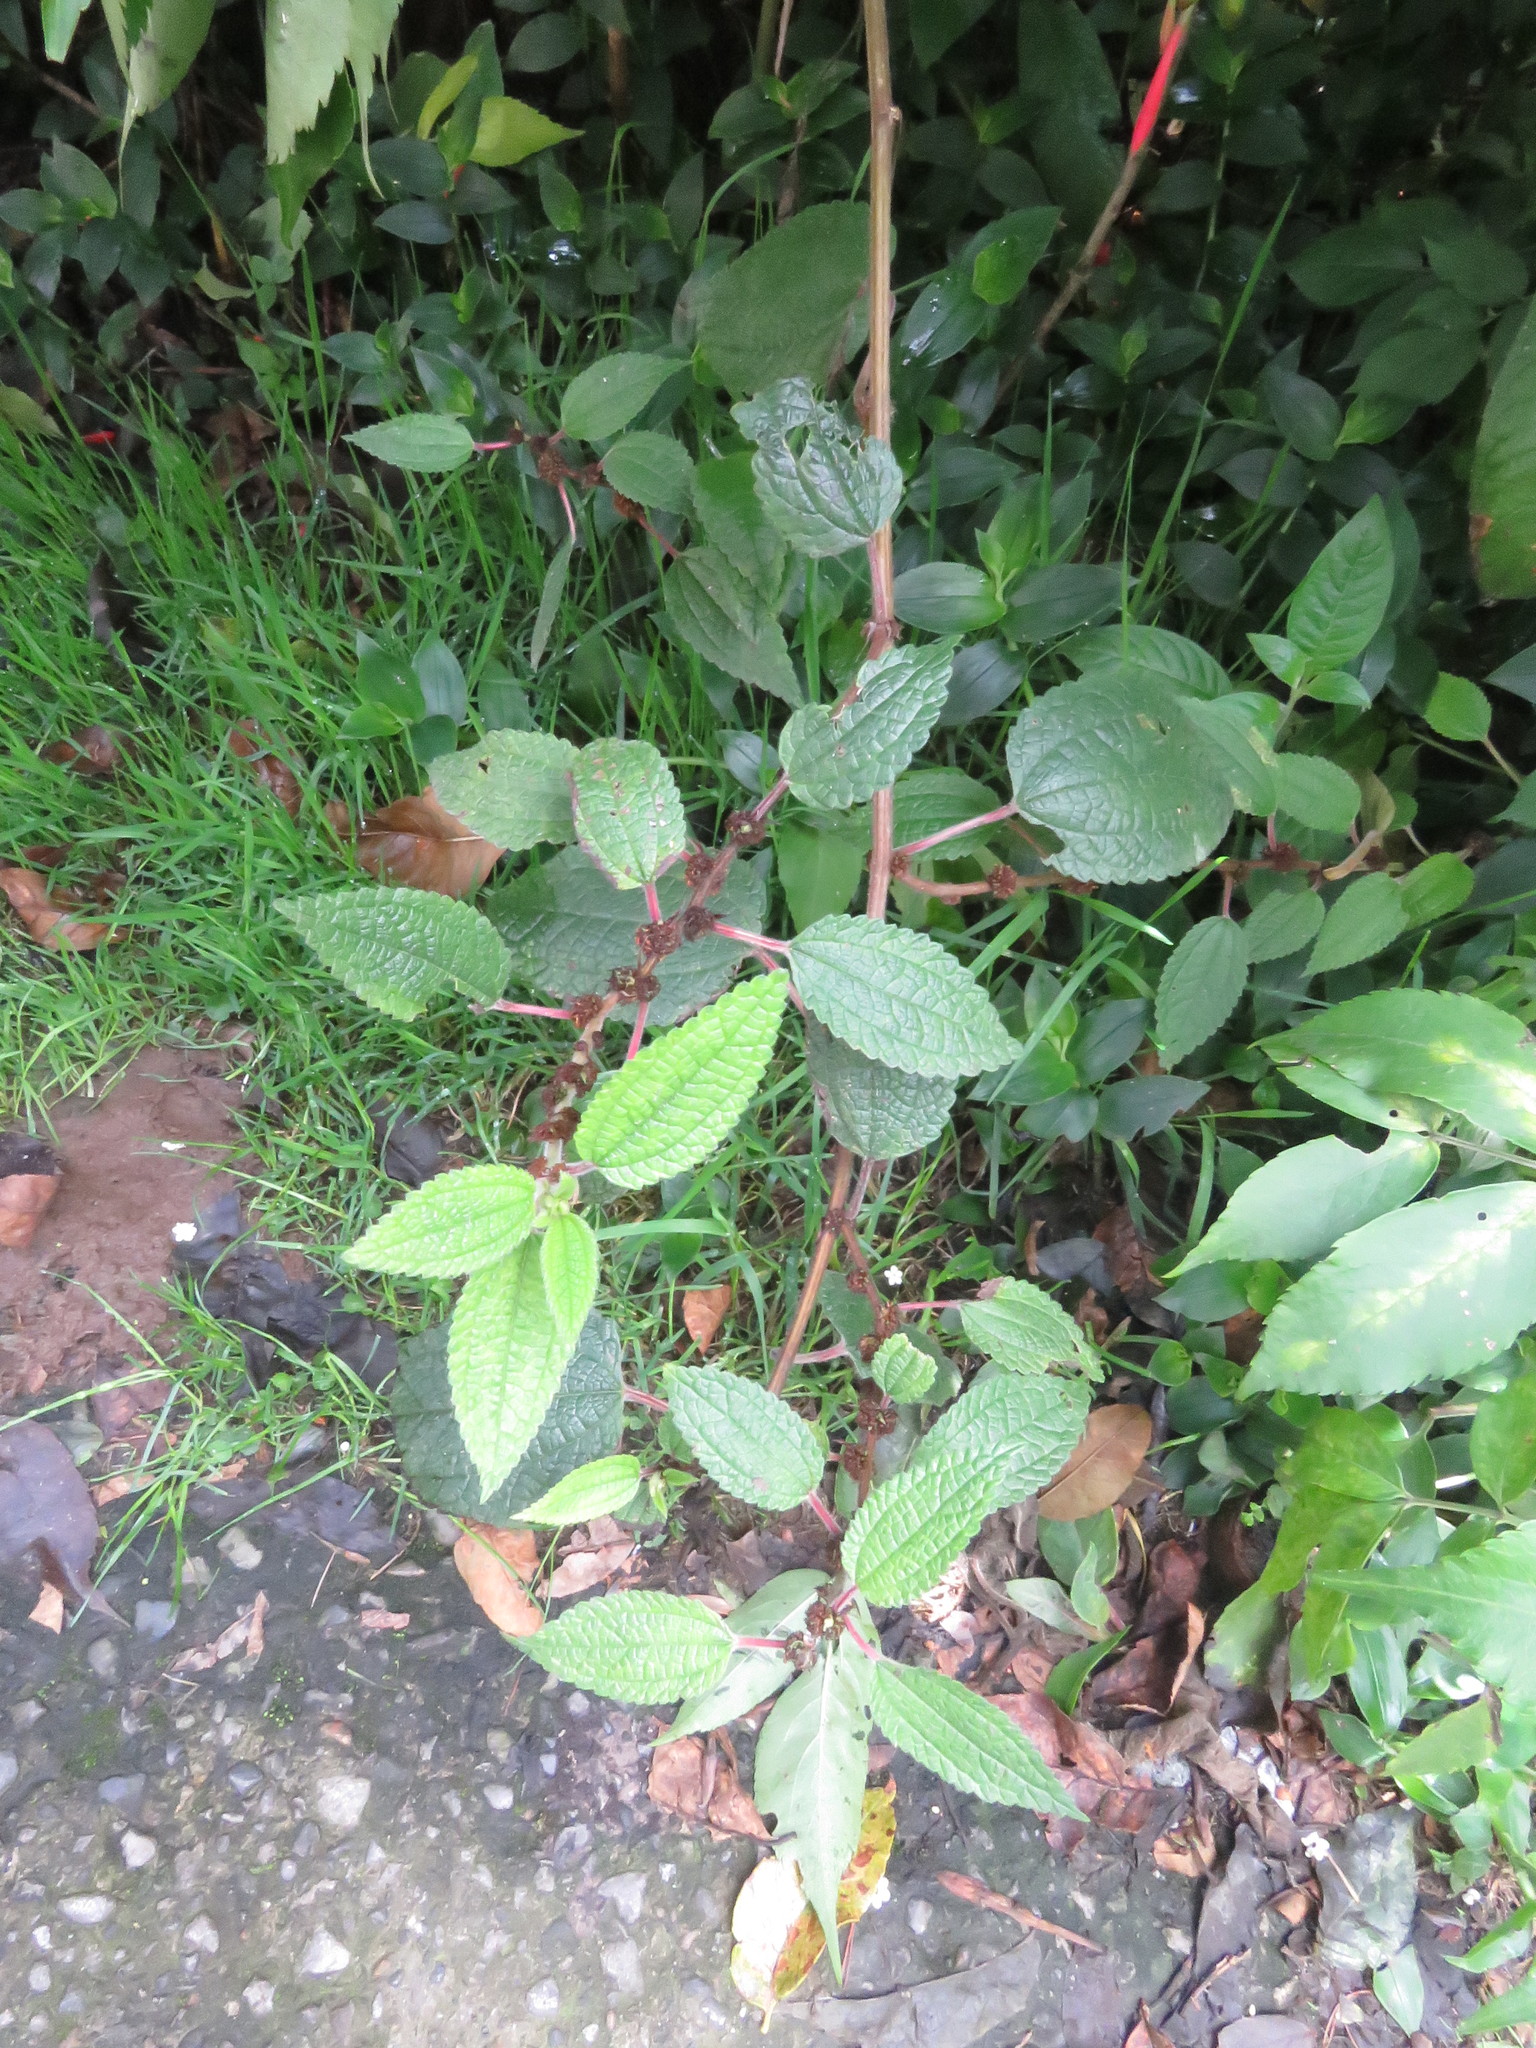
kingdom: Plantae
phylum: Tracheophyta
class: Magnoliopsida
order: Rosales
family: Urticaceae
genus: Phenax
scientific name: Phenax rugosus
